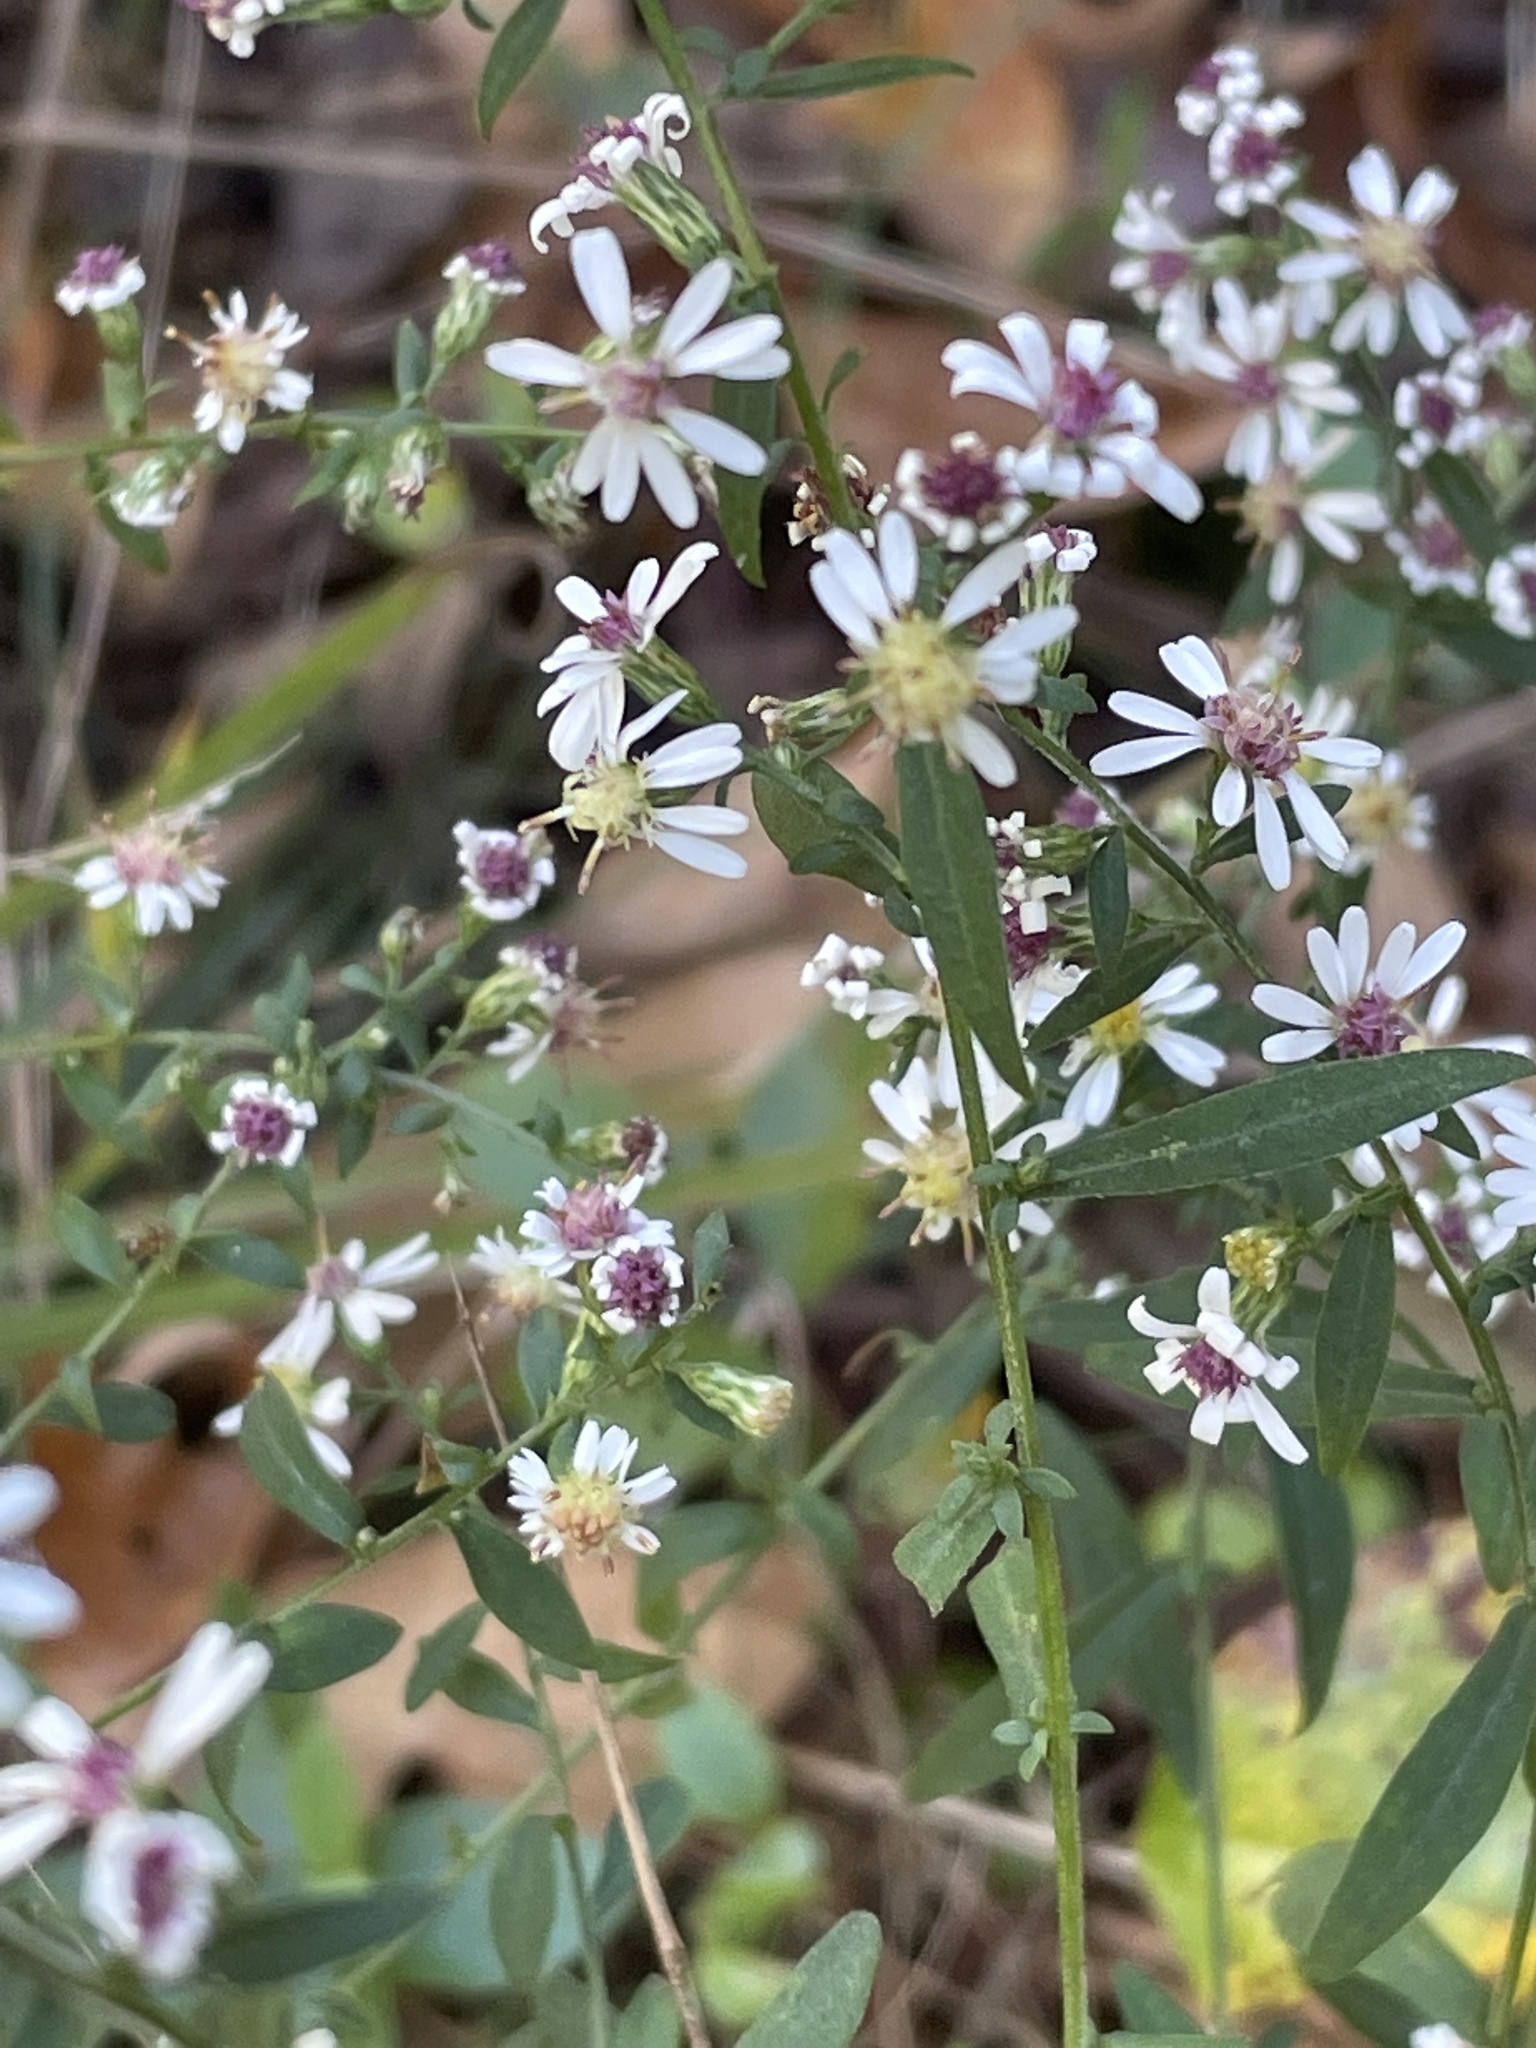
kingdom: Plantae
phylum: Tracheophyta
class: Magnoliopsida
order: Asterales
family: Asteraceae
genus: Symphyotrichum
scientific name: Symphyotrichum lateriflorum
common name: Calico aster
